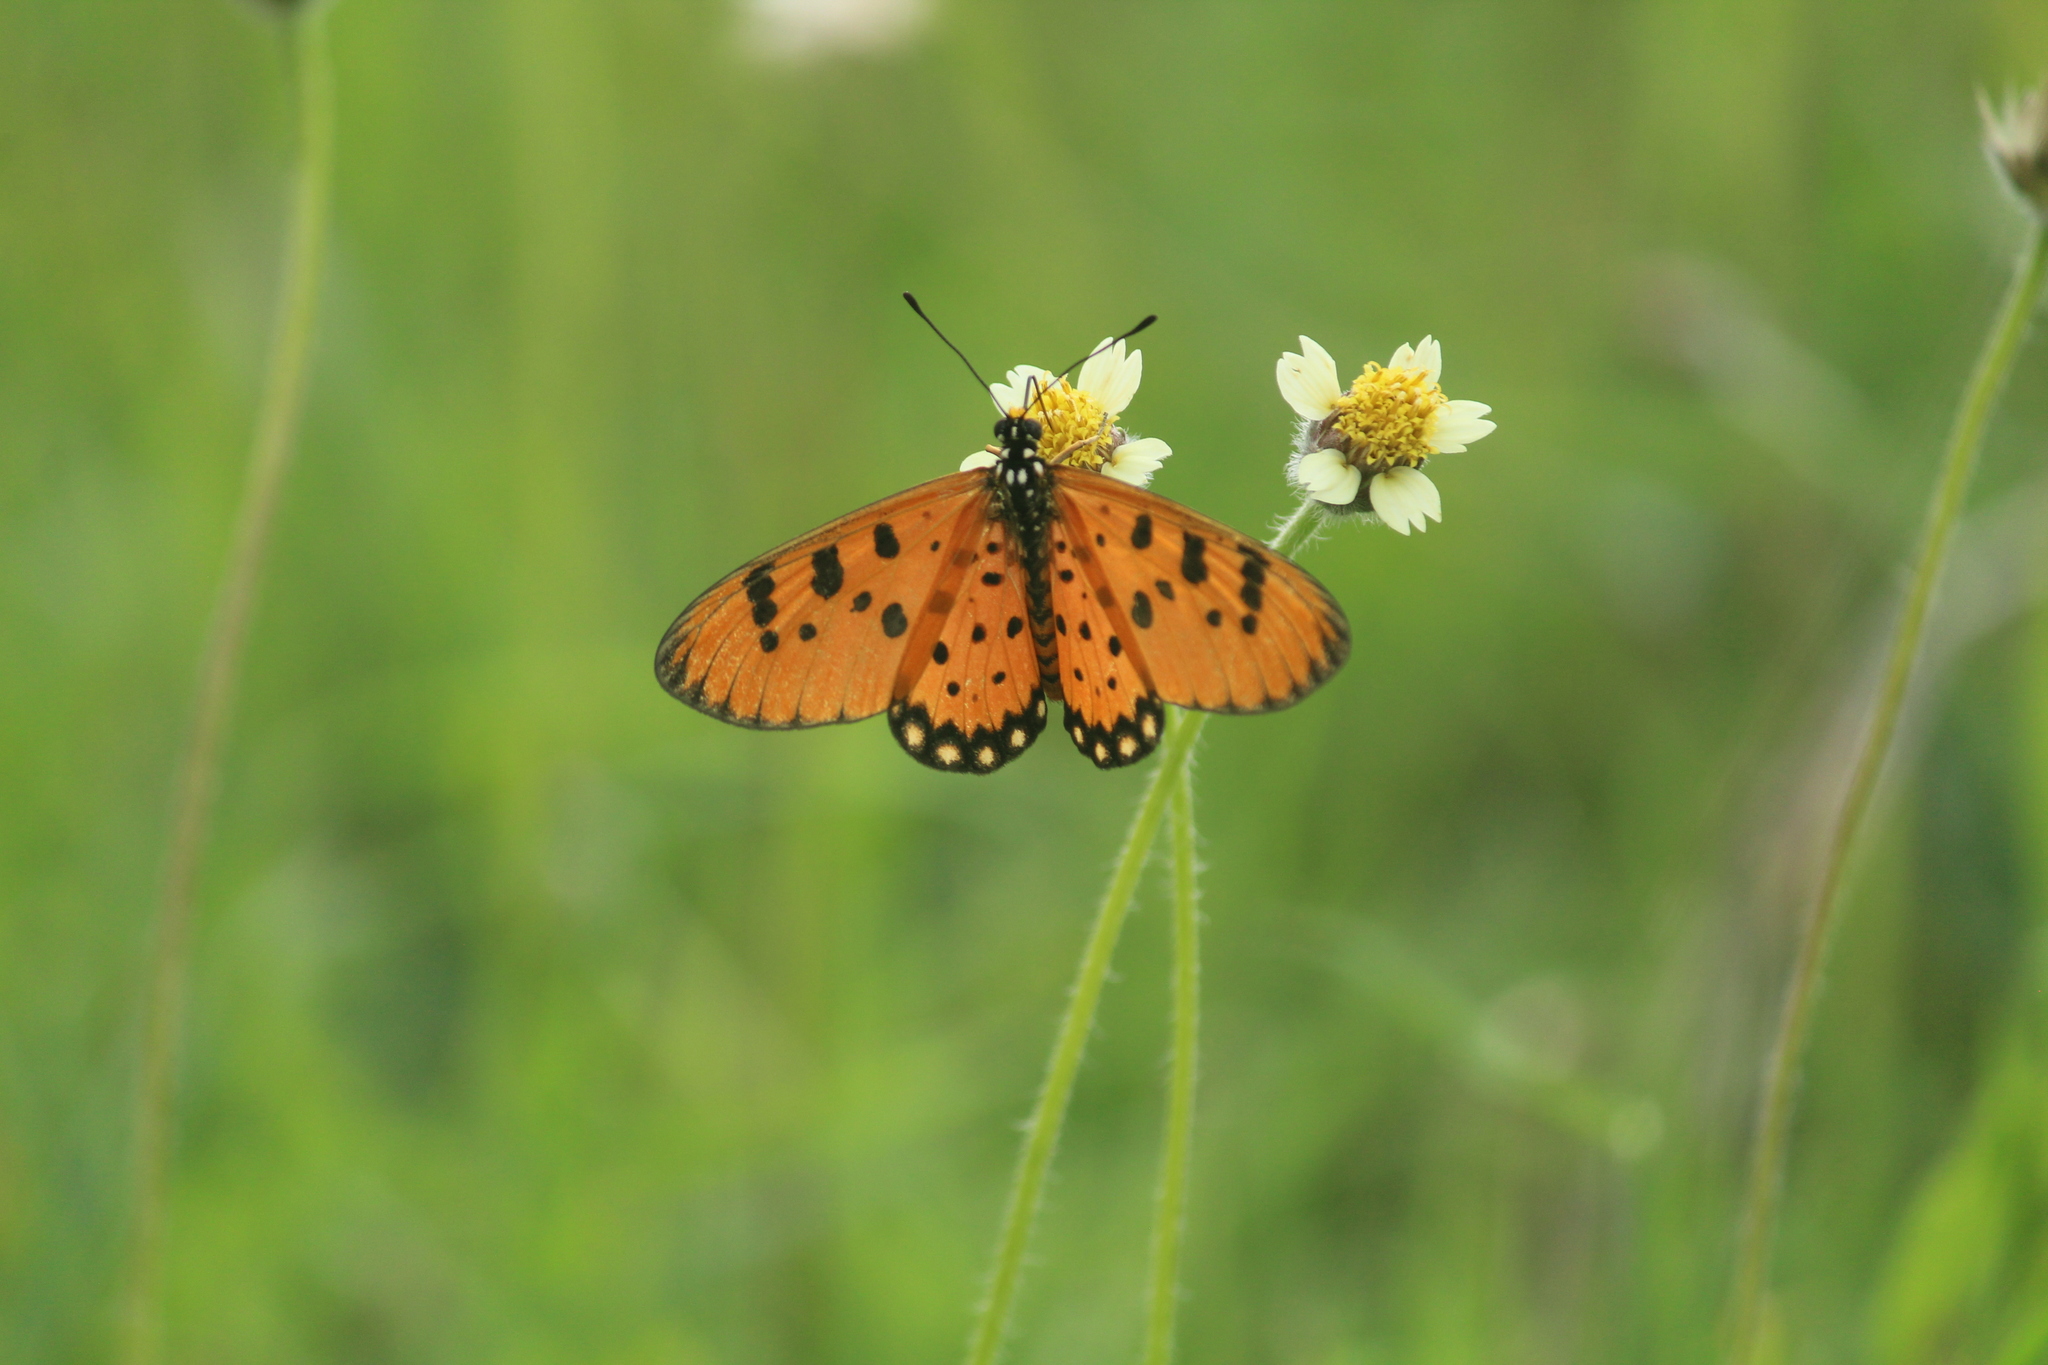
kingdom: Animalia
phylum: Arthropoda
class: Insecta
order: Lepidoptera
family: Nymphalidae
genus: Acraea
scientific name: Acraea terpsicore
